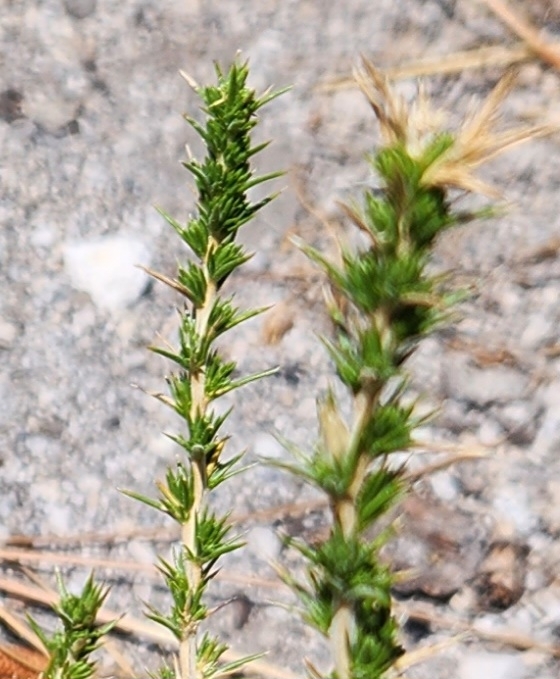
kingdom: Plantae
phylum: Tracheophyta
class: Magnoliopsida
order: Ericales
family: Polemoniaceae
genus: Linanthus
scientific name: Linanthus pungens
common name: Granite prickly phlox
